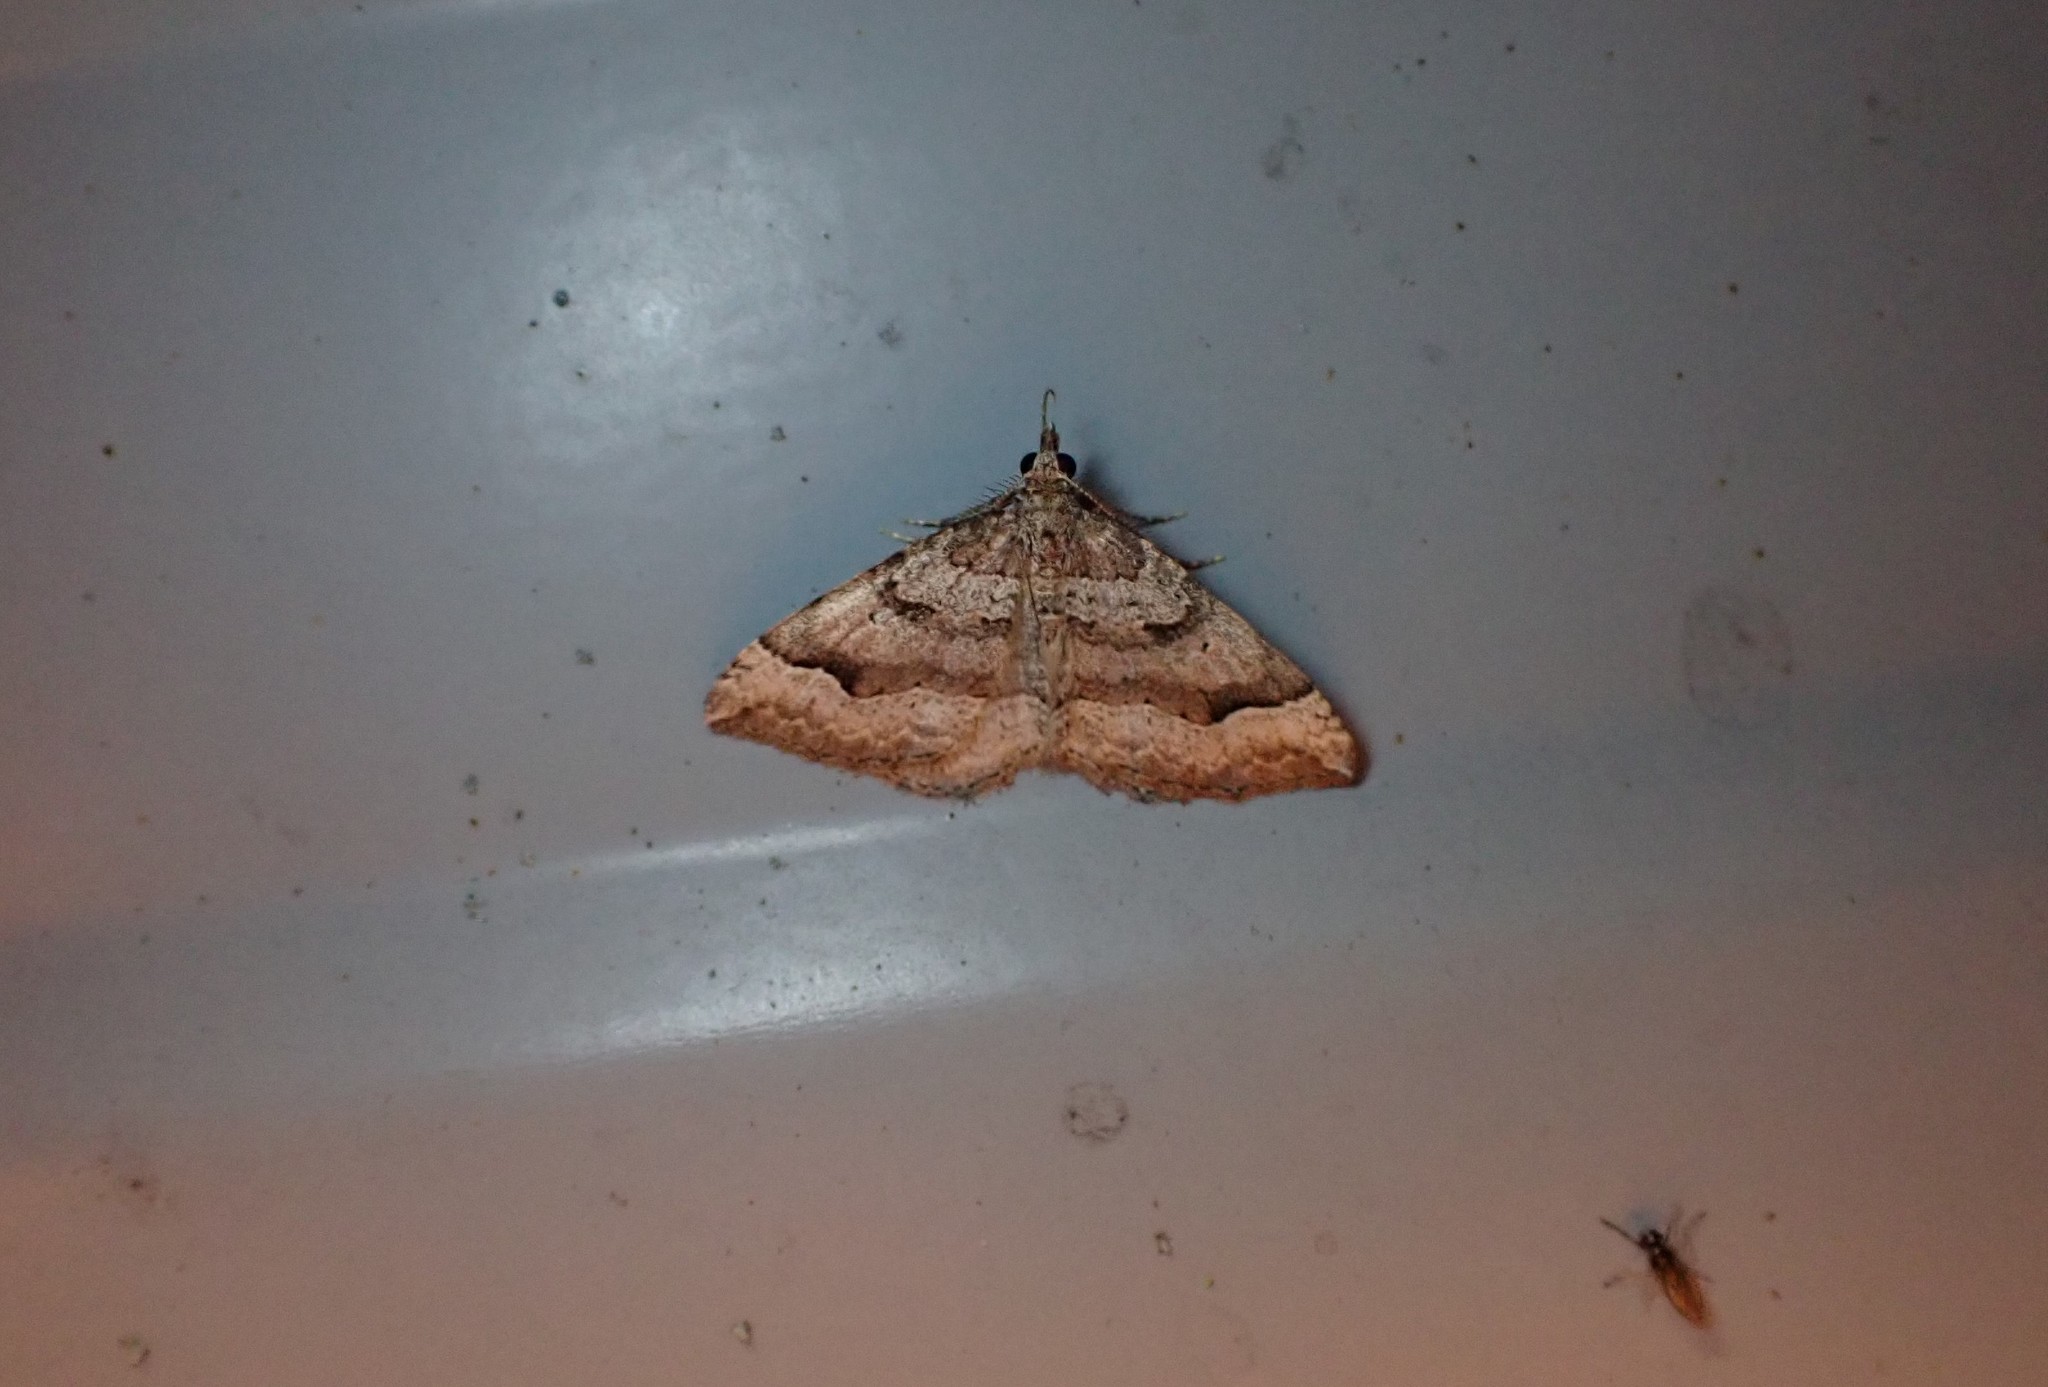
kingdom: Animalia
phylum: Arthropoda
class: Insecta
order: Lepidoptera
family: Geometridae
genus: Epyaxa
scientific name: Epyaxa rosearia
